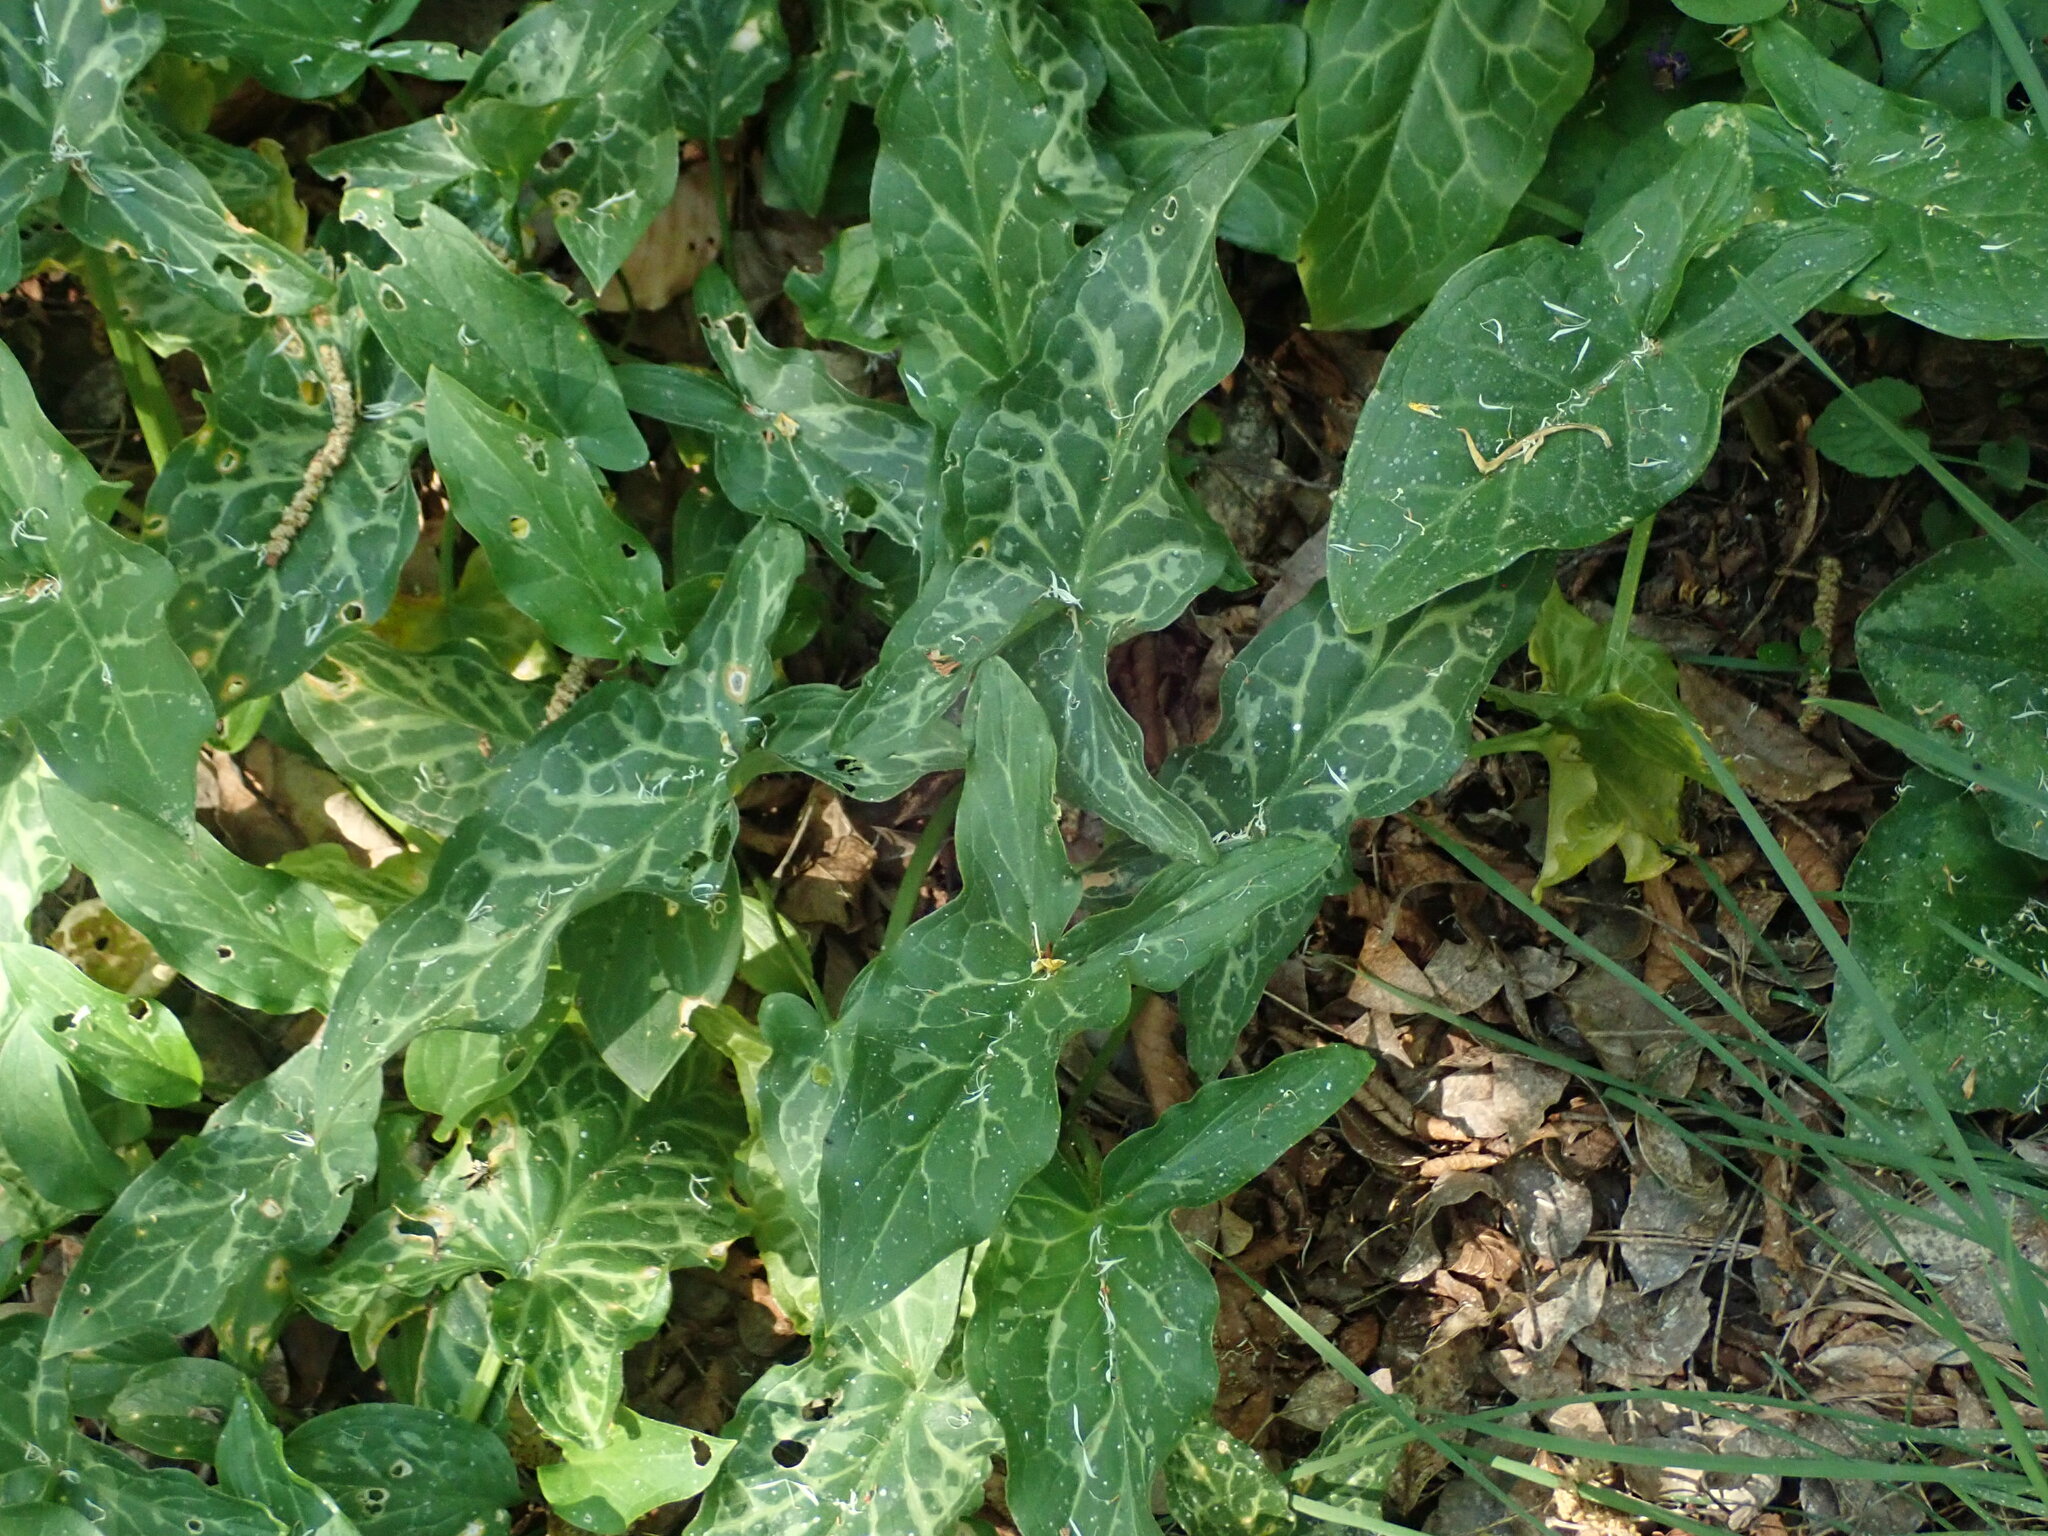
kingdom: Plantae
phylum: Tracheophyta
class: Liliopsida
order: Alismatales
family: Araceae
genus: Arum
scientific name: Arum italicum
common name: Italian lords-and-ladies
